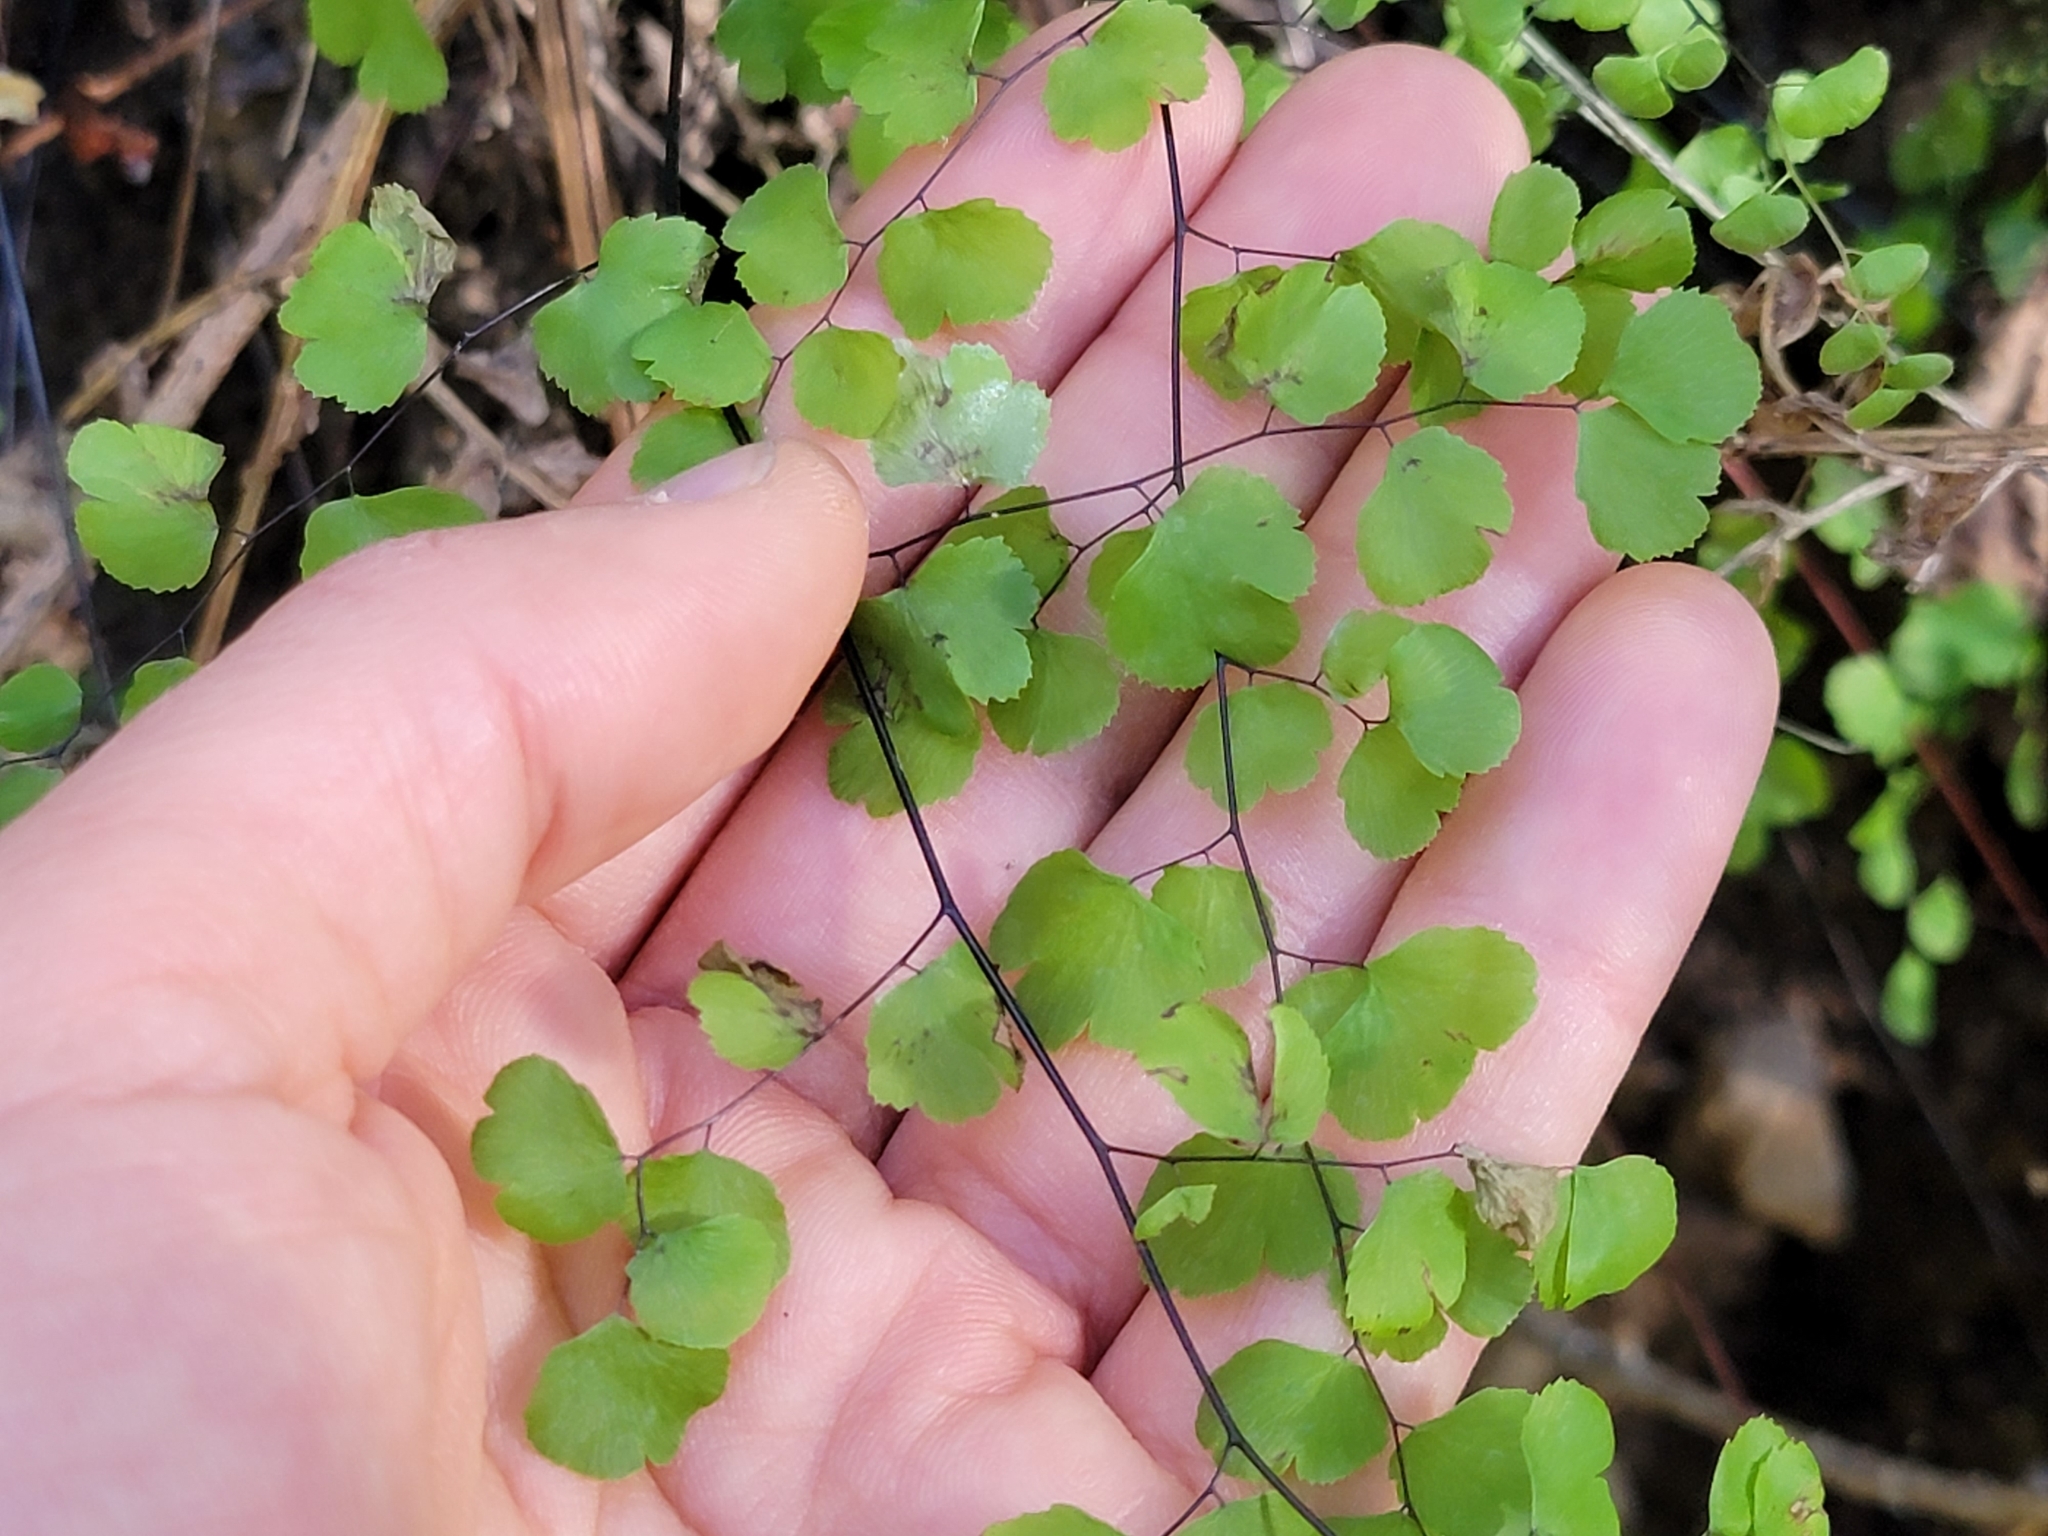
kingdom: Plantae
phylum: Tracheophyta
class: Polypodiopsida
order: Polypodiales
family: Pteridaceae
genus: Adiantum
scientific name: Adiantum jordanii
